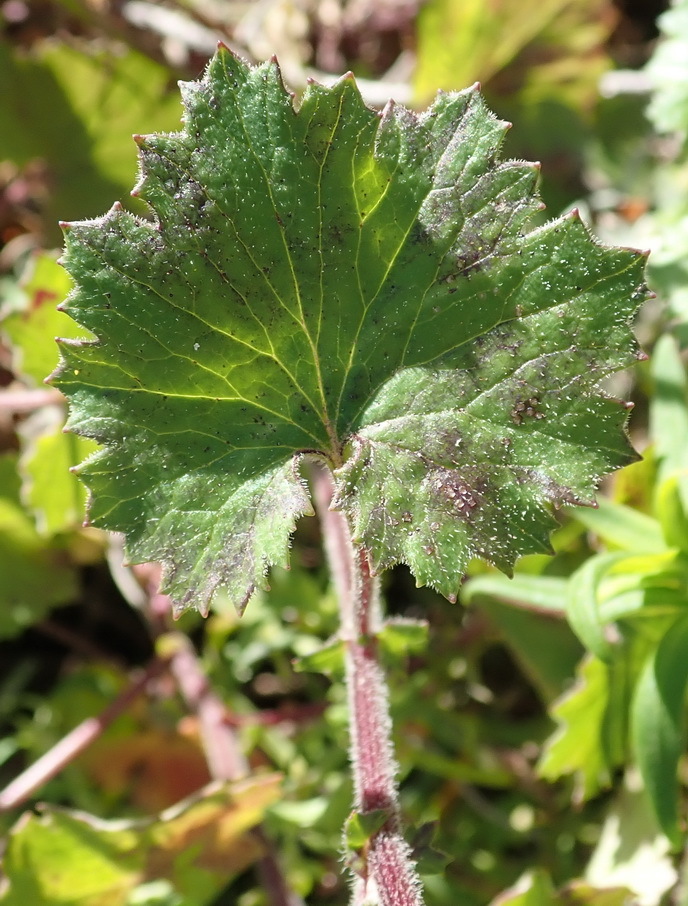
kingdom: Plantae
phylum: Tracheophyta
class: Magnoliopsida
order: Asterales
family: Asteraceae
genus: Cineraria
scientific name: Cineraria geifolia
